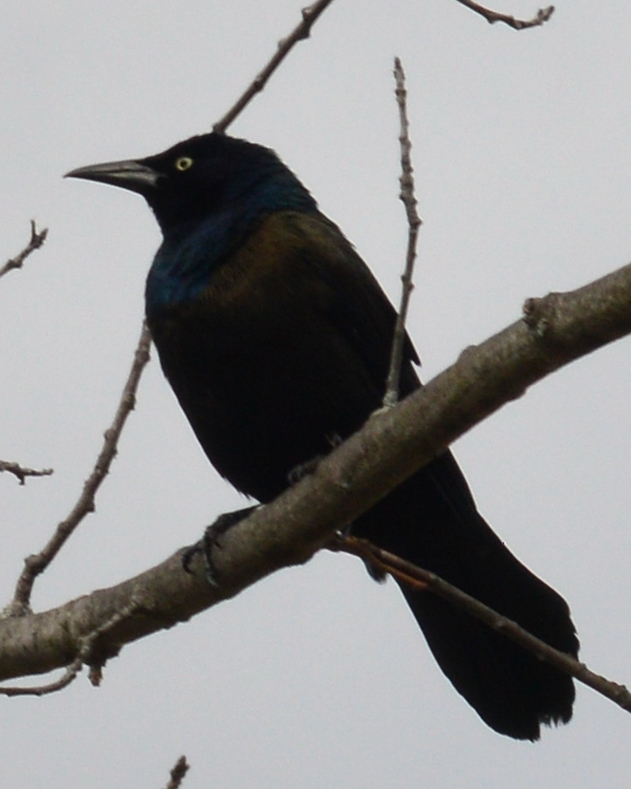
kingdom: Animalia
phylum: Chordata
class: Aves
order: Passeriformes
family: Icteridae
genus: Quiscalus
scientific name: Quiscalus quiscula
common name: Common grackle
